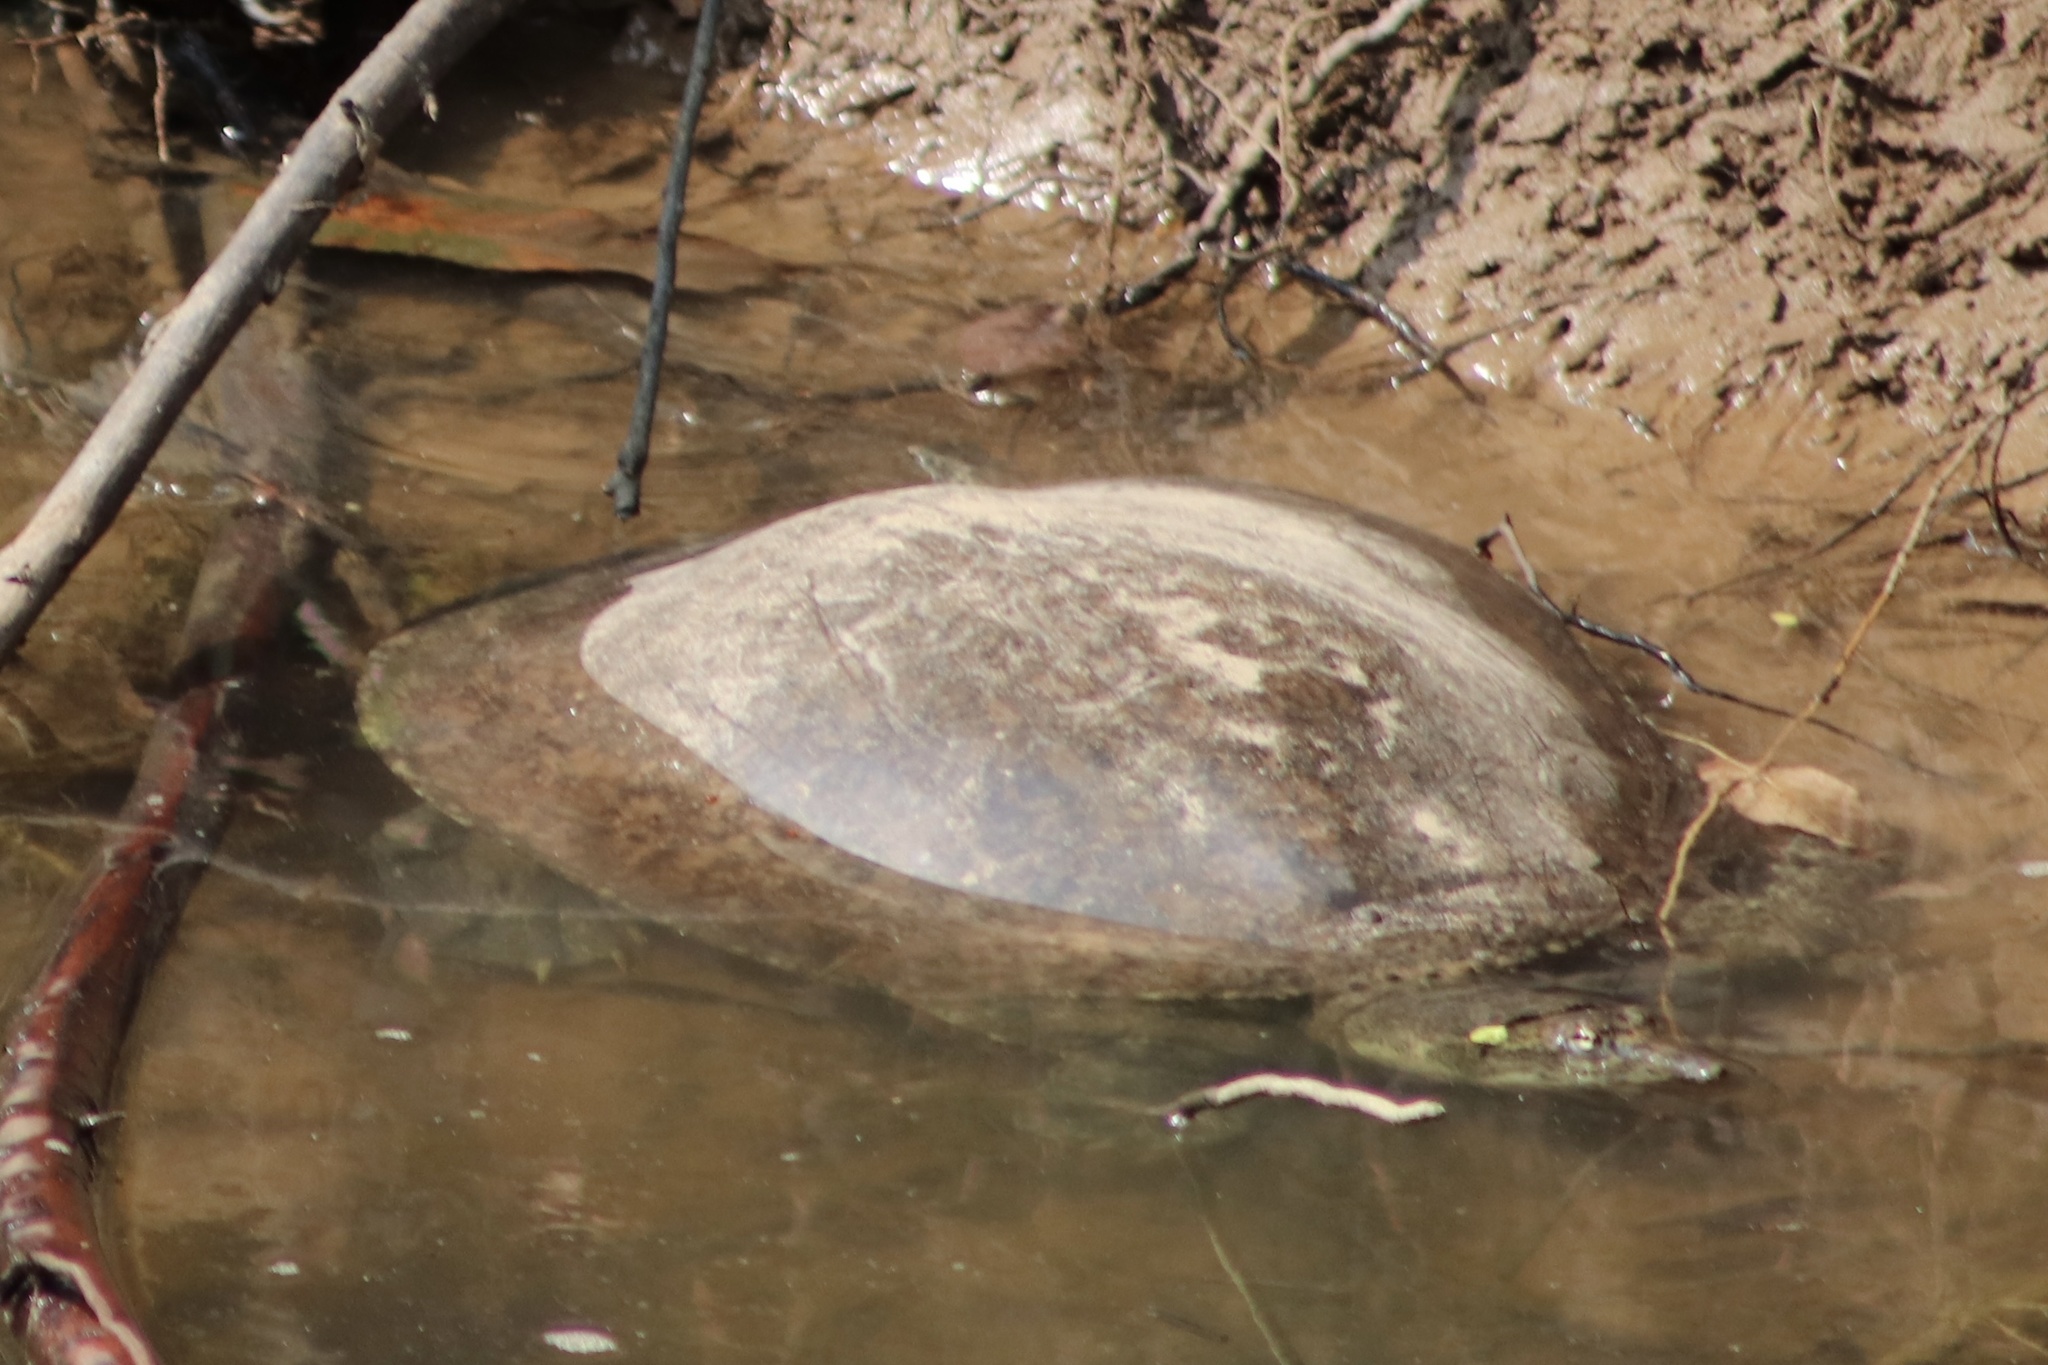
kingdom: Animalia
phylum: Chordata
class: Testudines
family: Trionychidae
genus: Apalone
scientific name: Apalone spinifera
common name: Spiny softshell turtle
